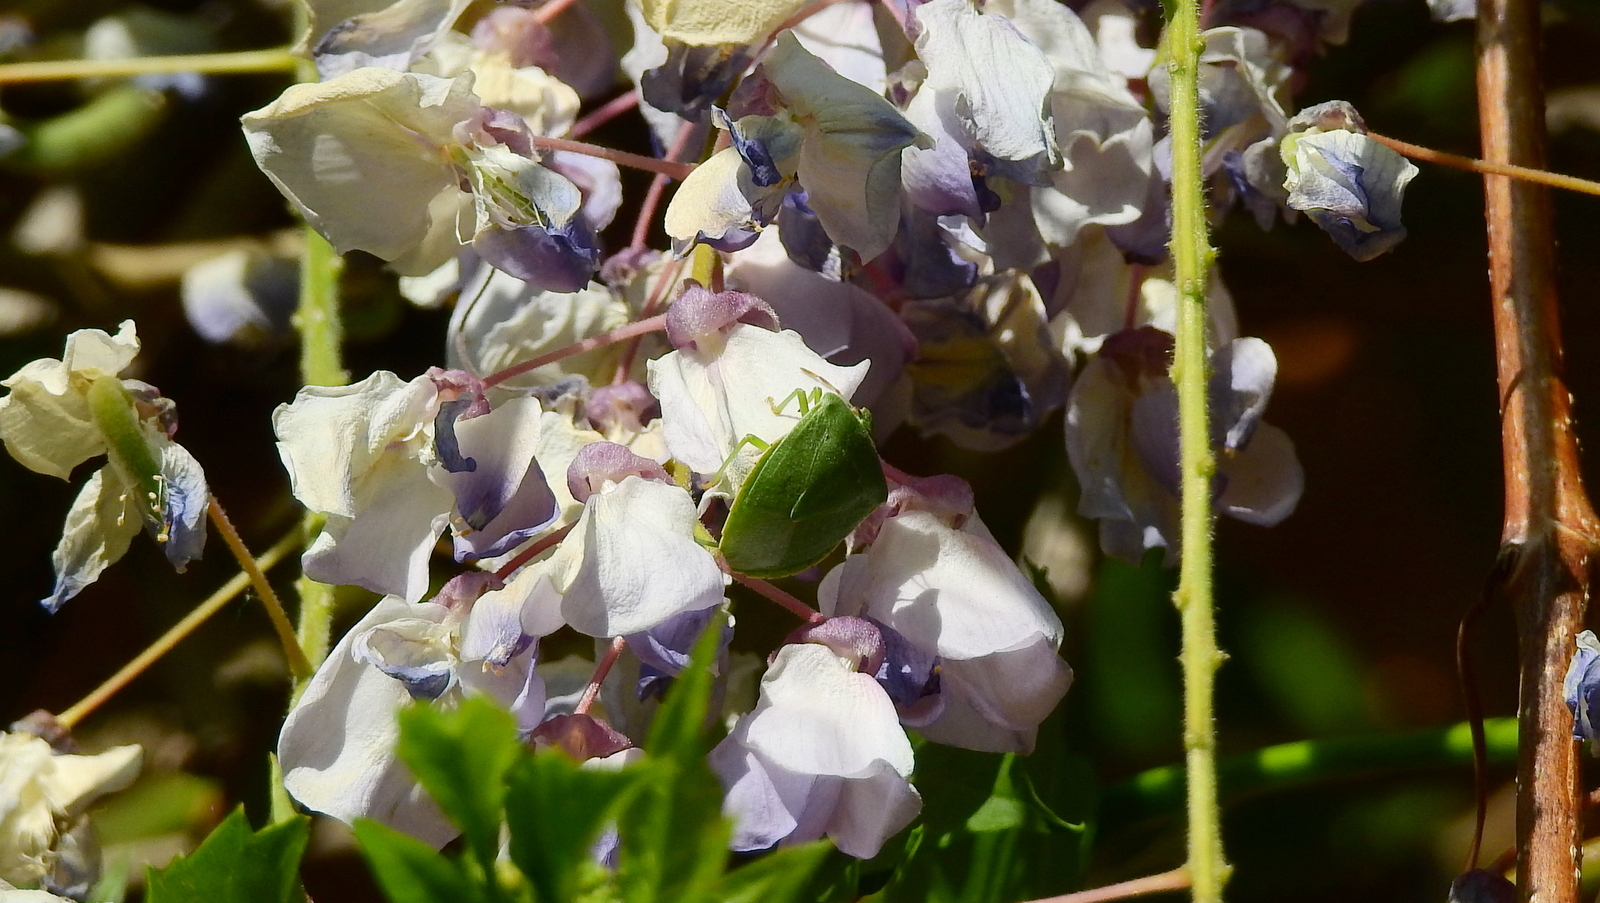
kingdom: Animalia
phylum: Arthropoda
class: Insecta
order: Hemiptera
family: Pentatomidae
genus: Nezara
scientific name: Nezara viridula
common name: Southern green stink bug
